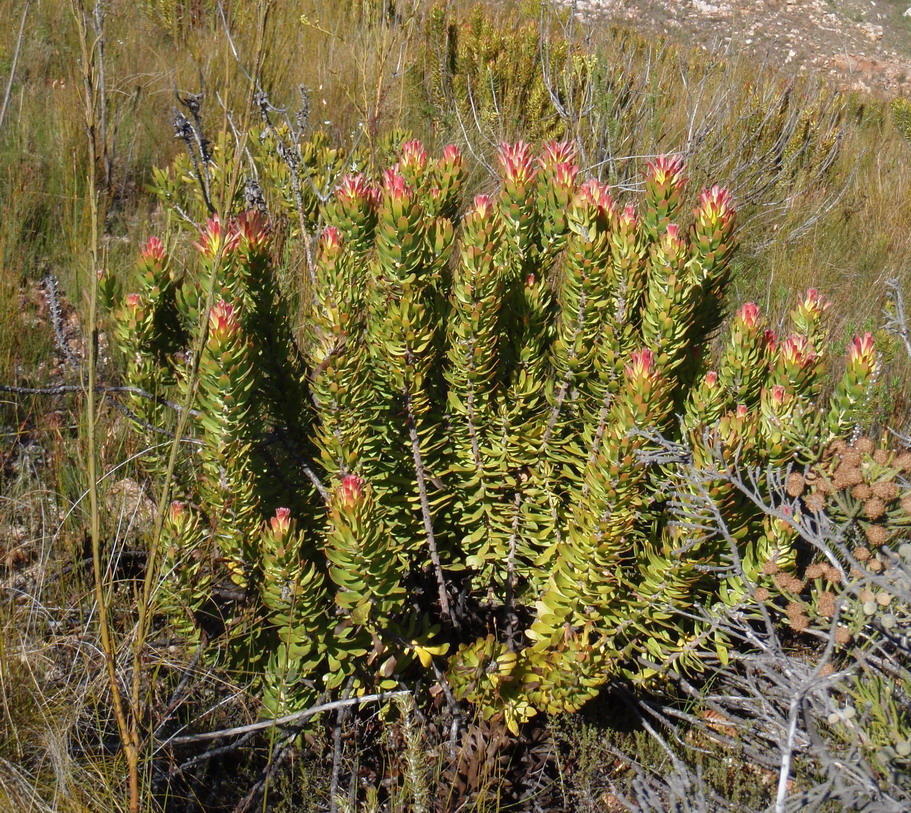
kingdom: Plantae
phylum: Tracheophyta
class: Magnoliopsida
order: Proteales
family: Proteaceae
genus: Mimetes
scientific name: Mimetes cucullatus
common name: Common pagoda
